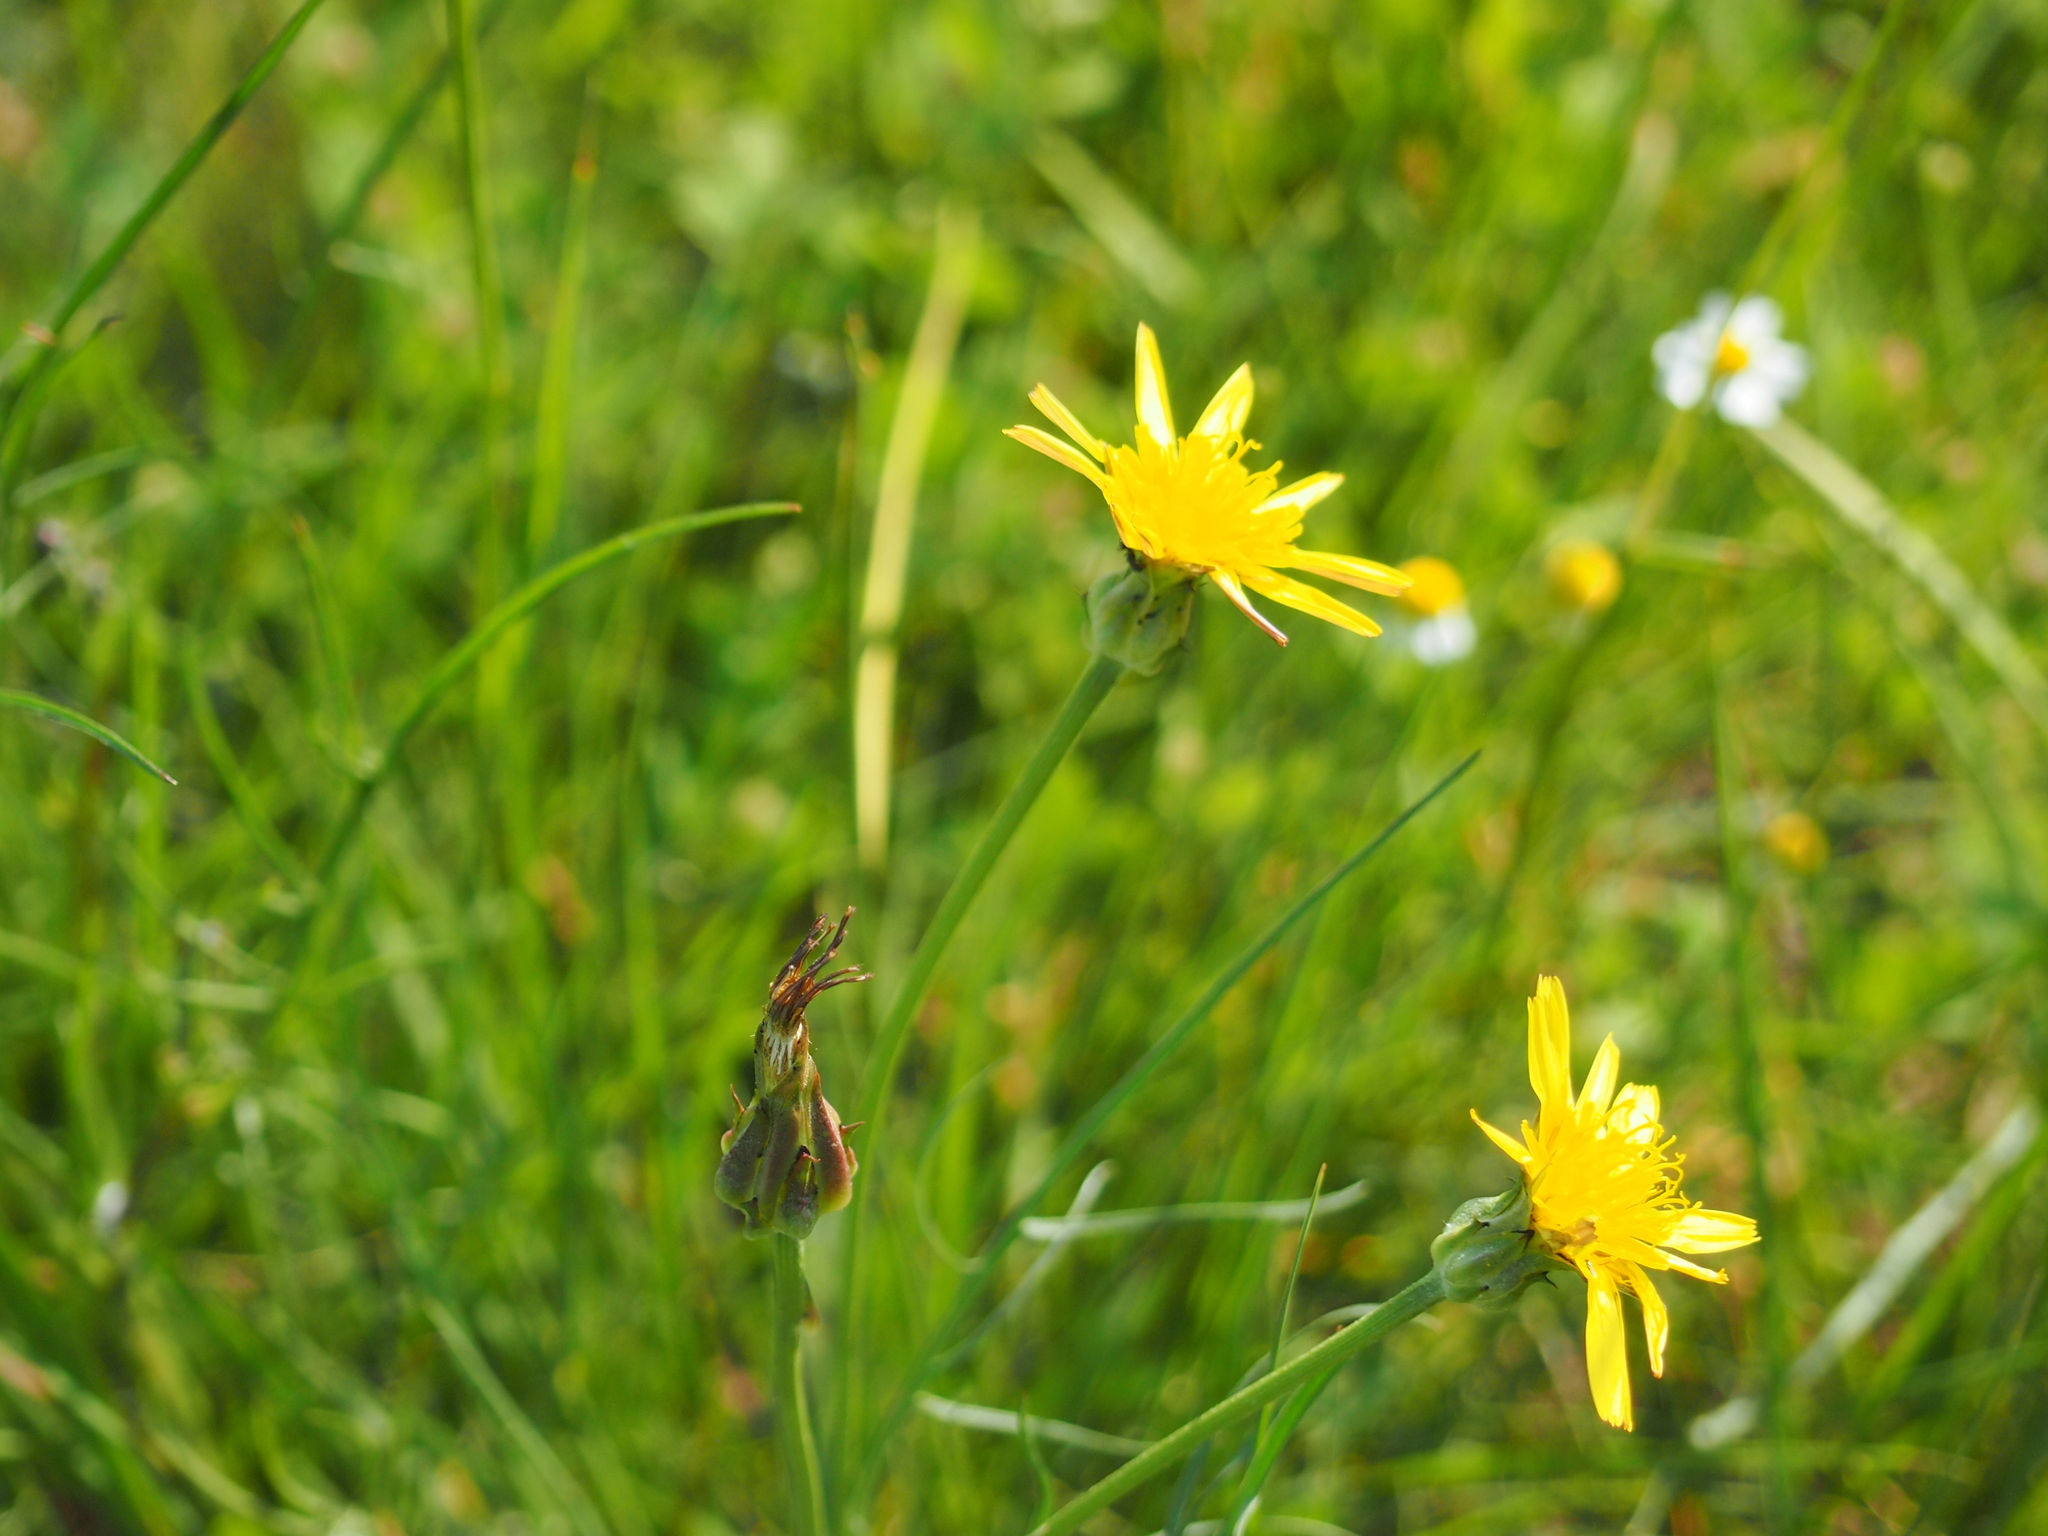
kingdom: Plantae
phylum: Tracheophyta
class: Magnoliopsida
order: Asterales
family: Asteraceae
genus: Scorzonera
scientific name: Scorzonera cana
